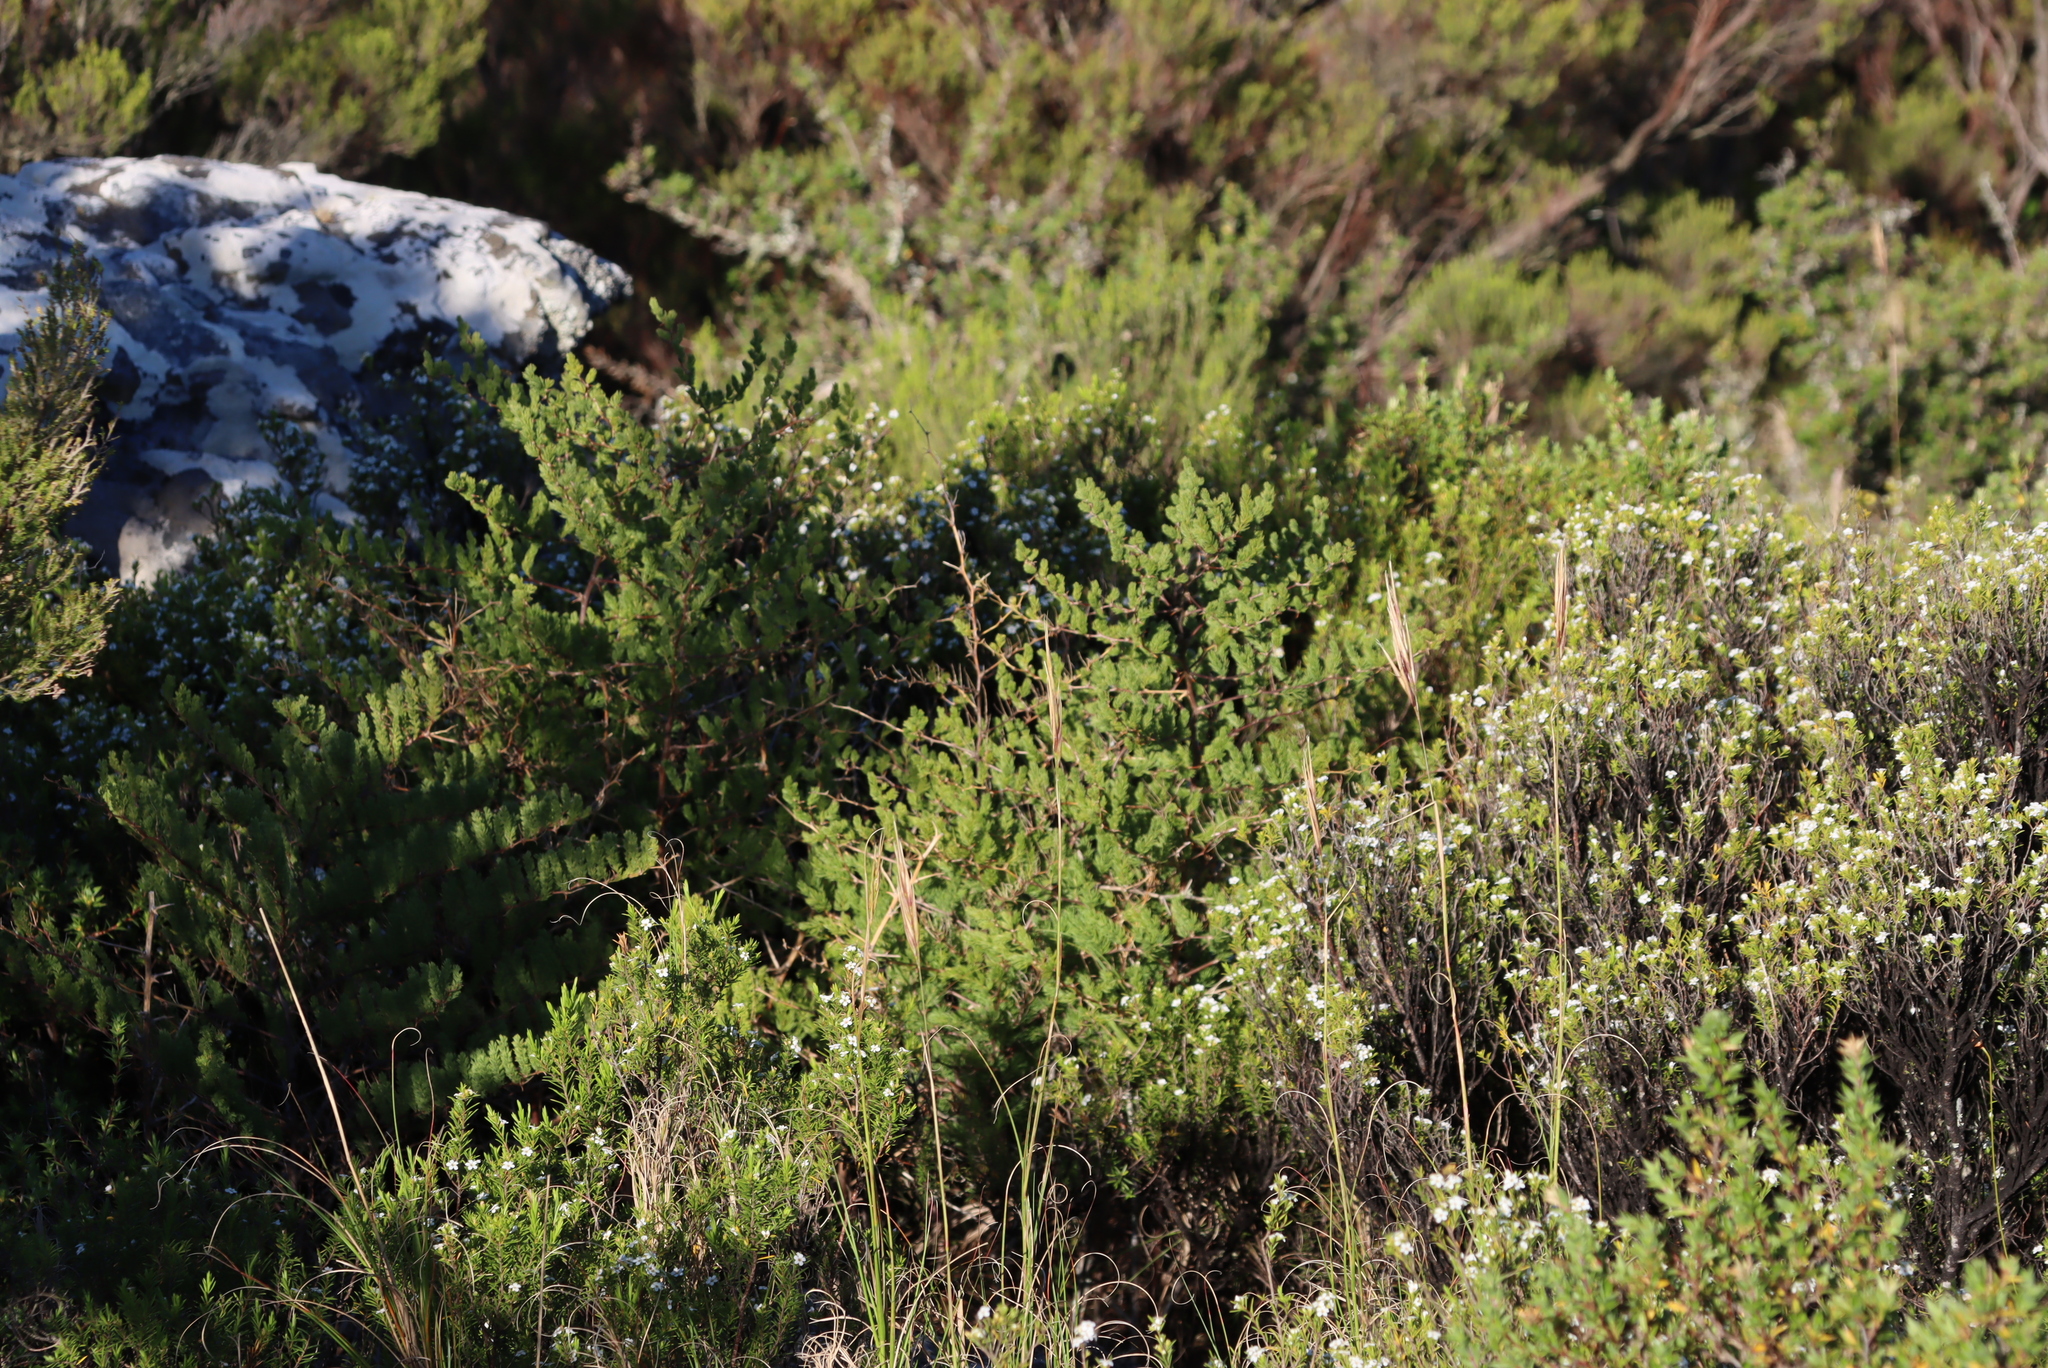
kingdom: Plantae
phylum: Tracheophyta
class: Liliopsida
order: Asparagales
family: Asparagaceae
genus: Asparagus
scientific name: Asparagus rubicundus
